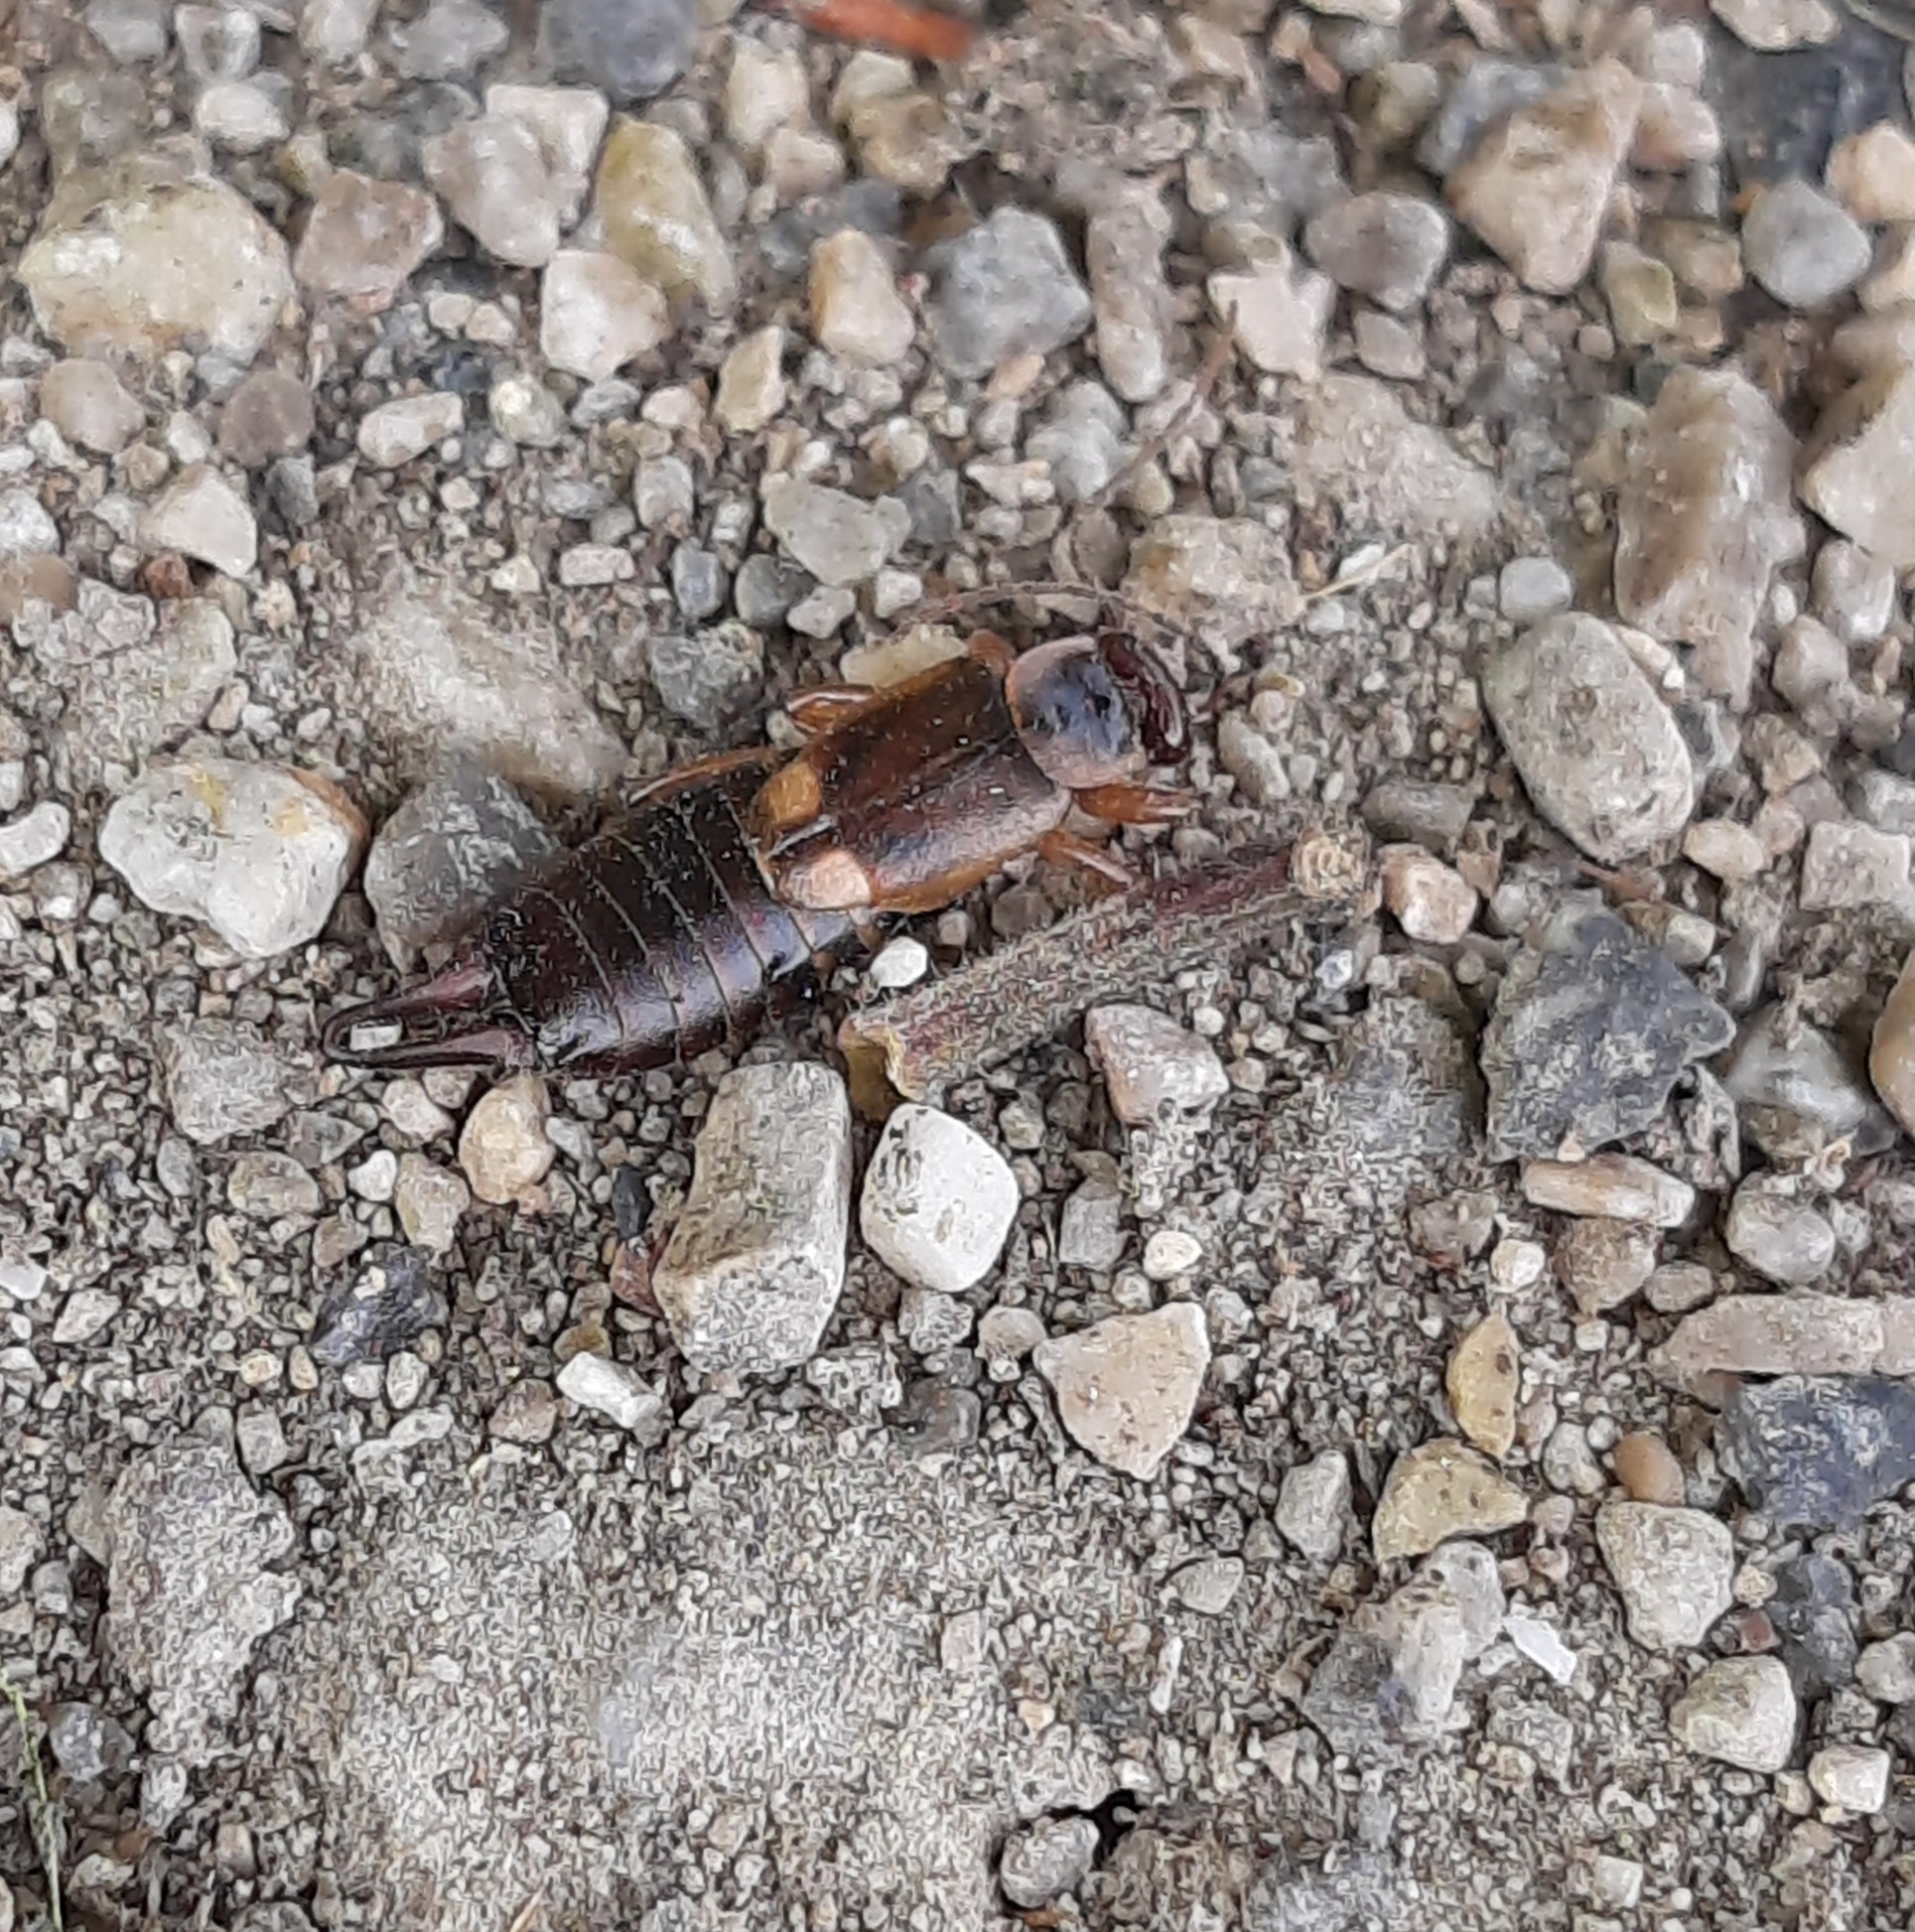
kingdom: Animalia
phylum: Arthropoda
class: Insecta
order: Dermaptera
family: Forficulidae
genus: Forficula
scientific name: Forficula
